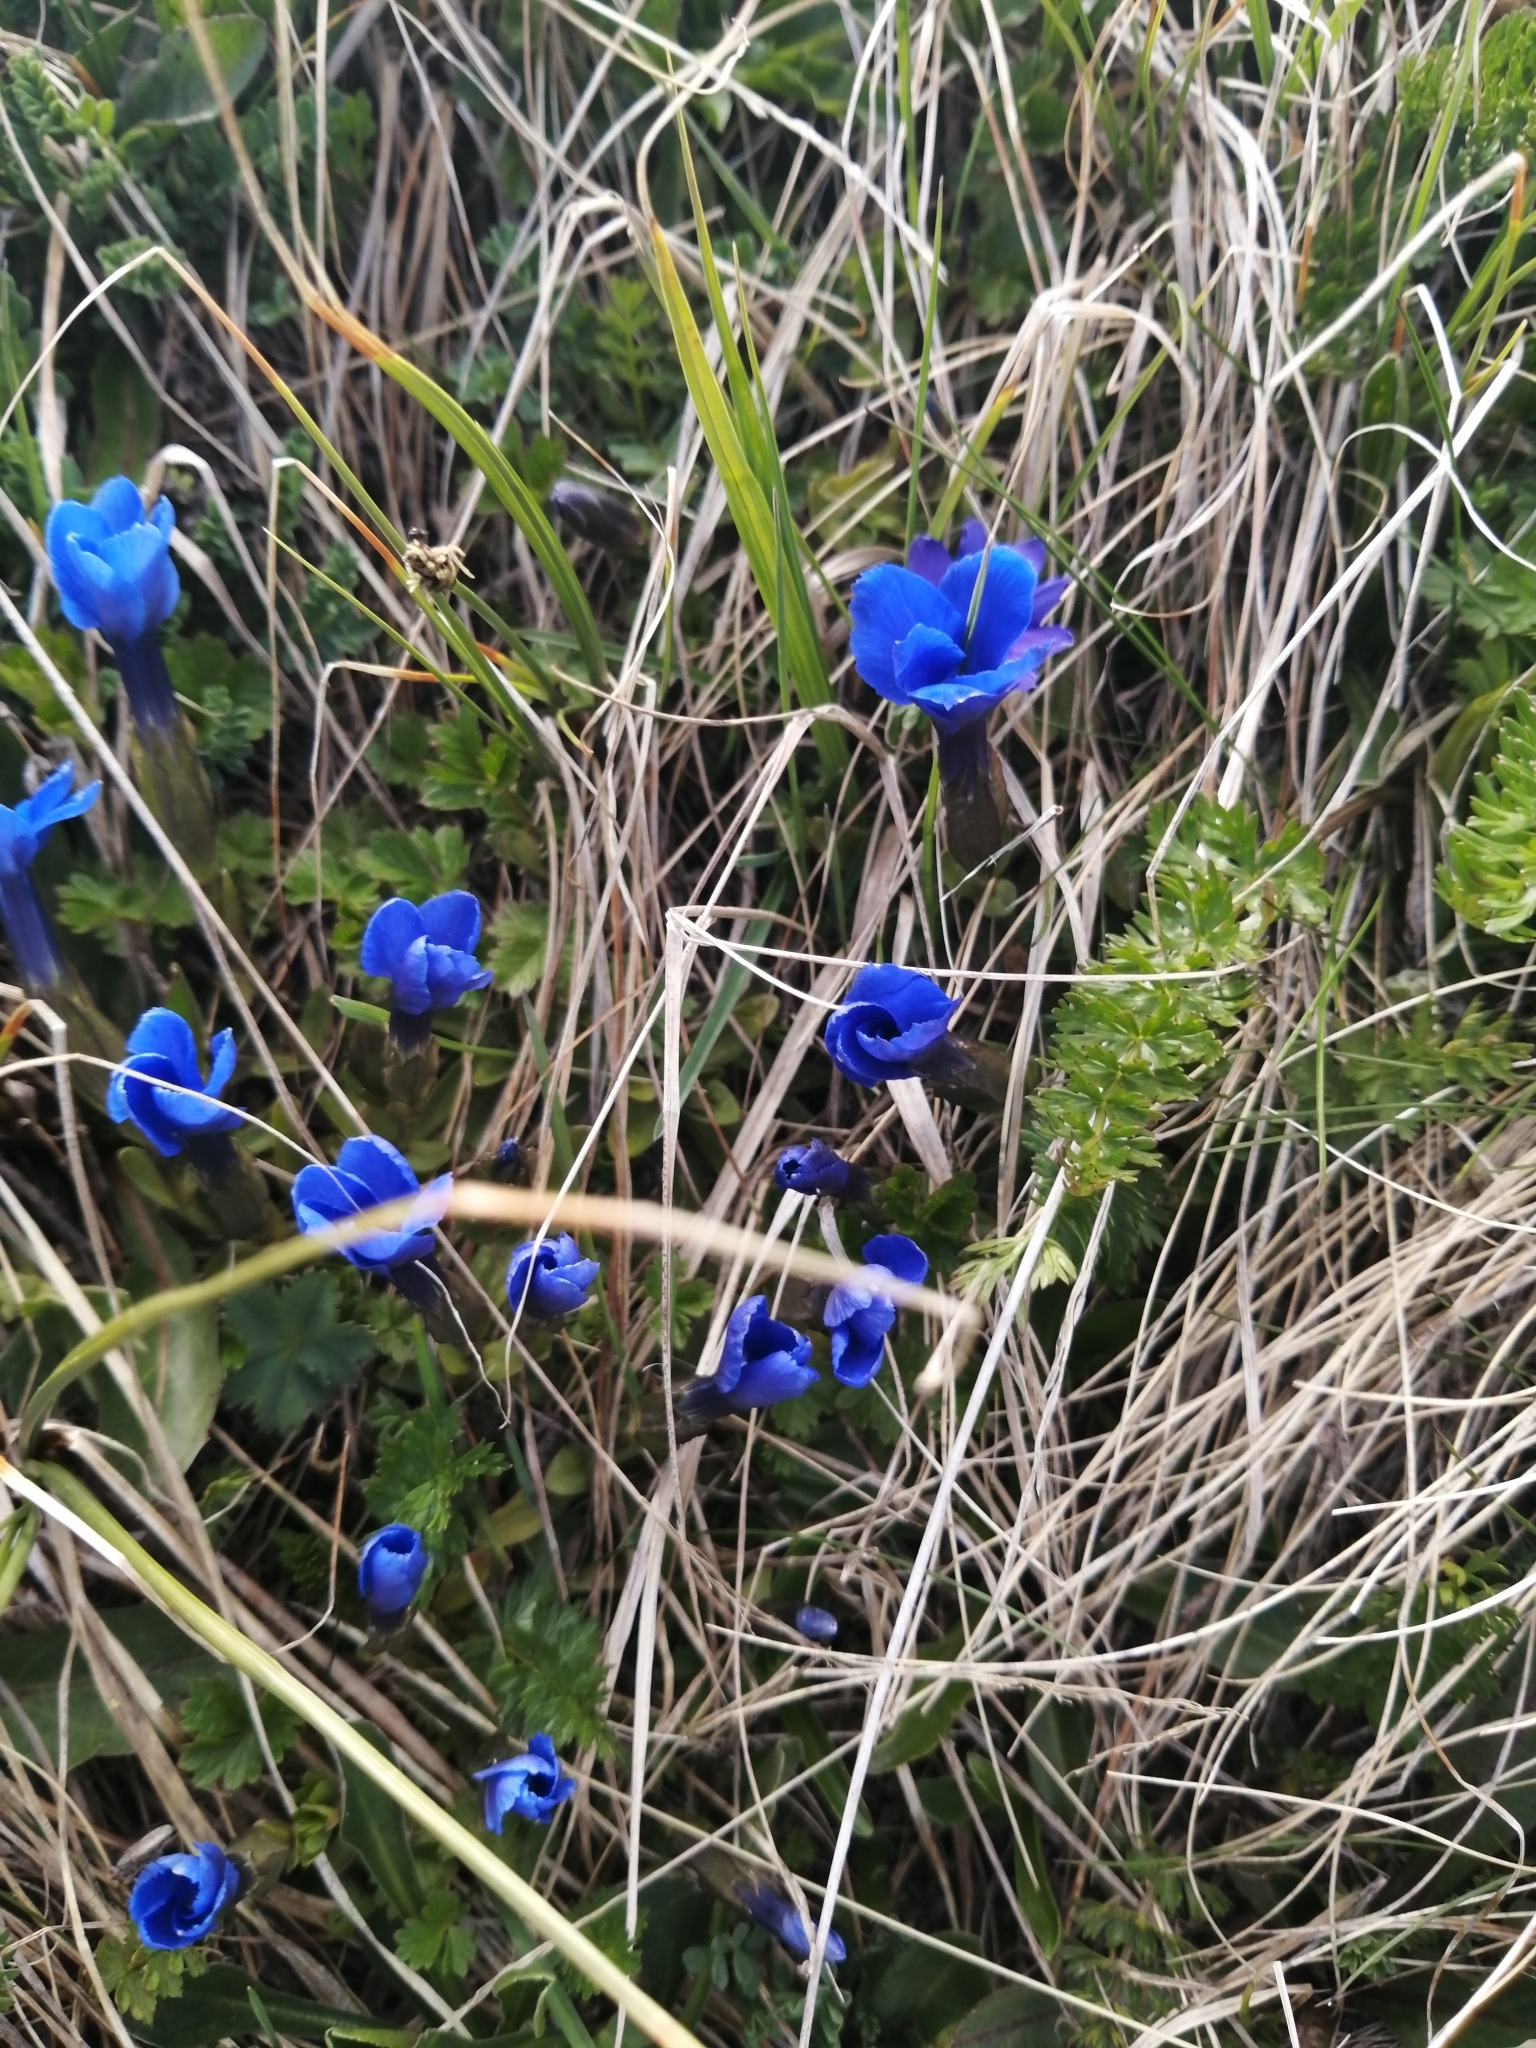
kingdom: Plantae
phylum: Tracheophyta
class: Magnoliopsida
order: Gentianales
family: Gentianaceae
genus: Gentiana
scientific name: Gentiana verna
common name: Spring gentian
